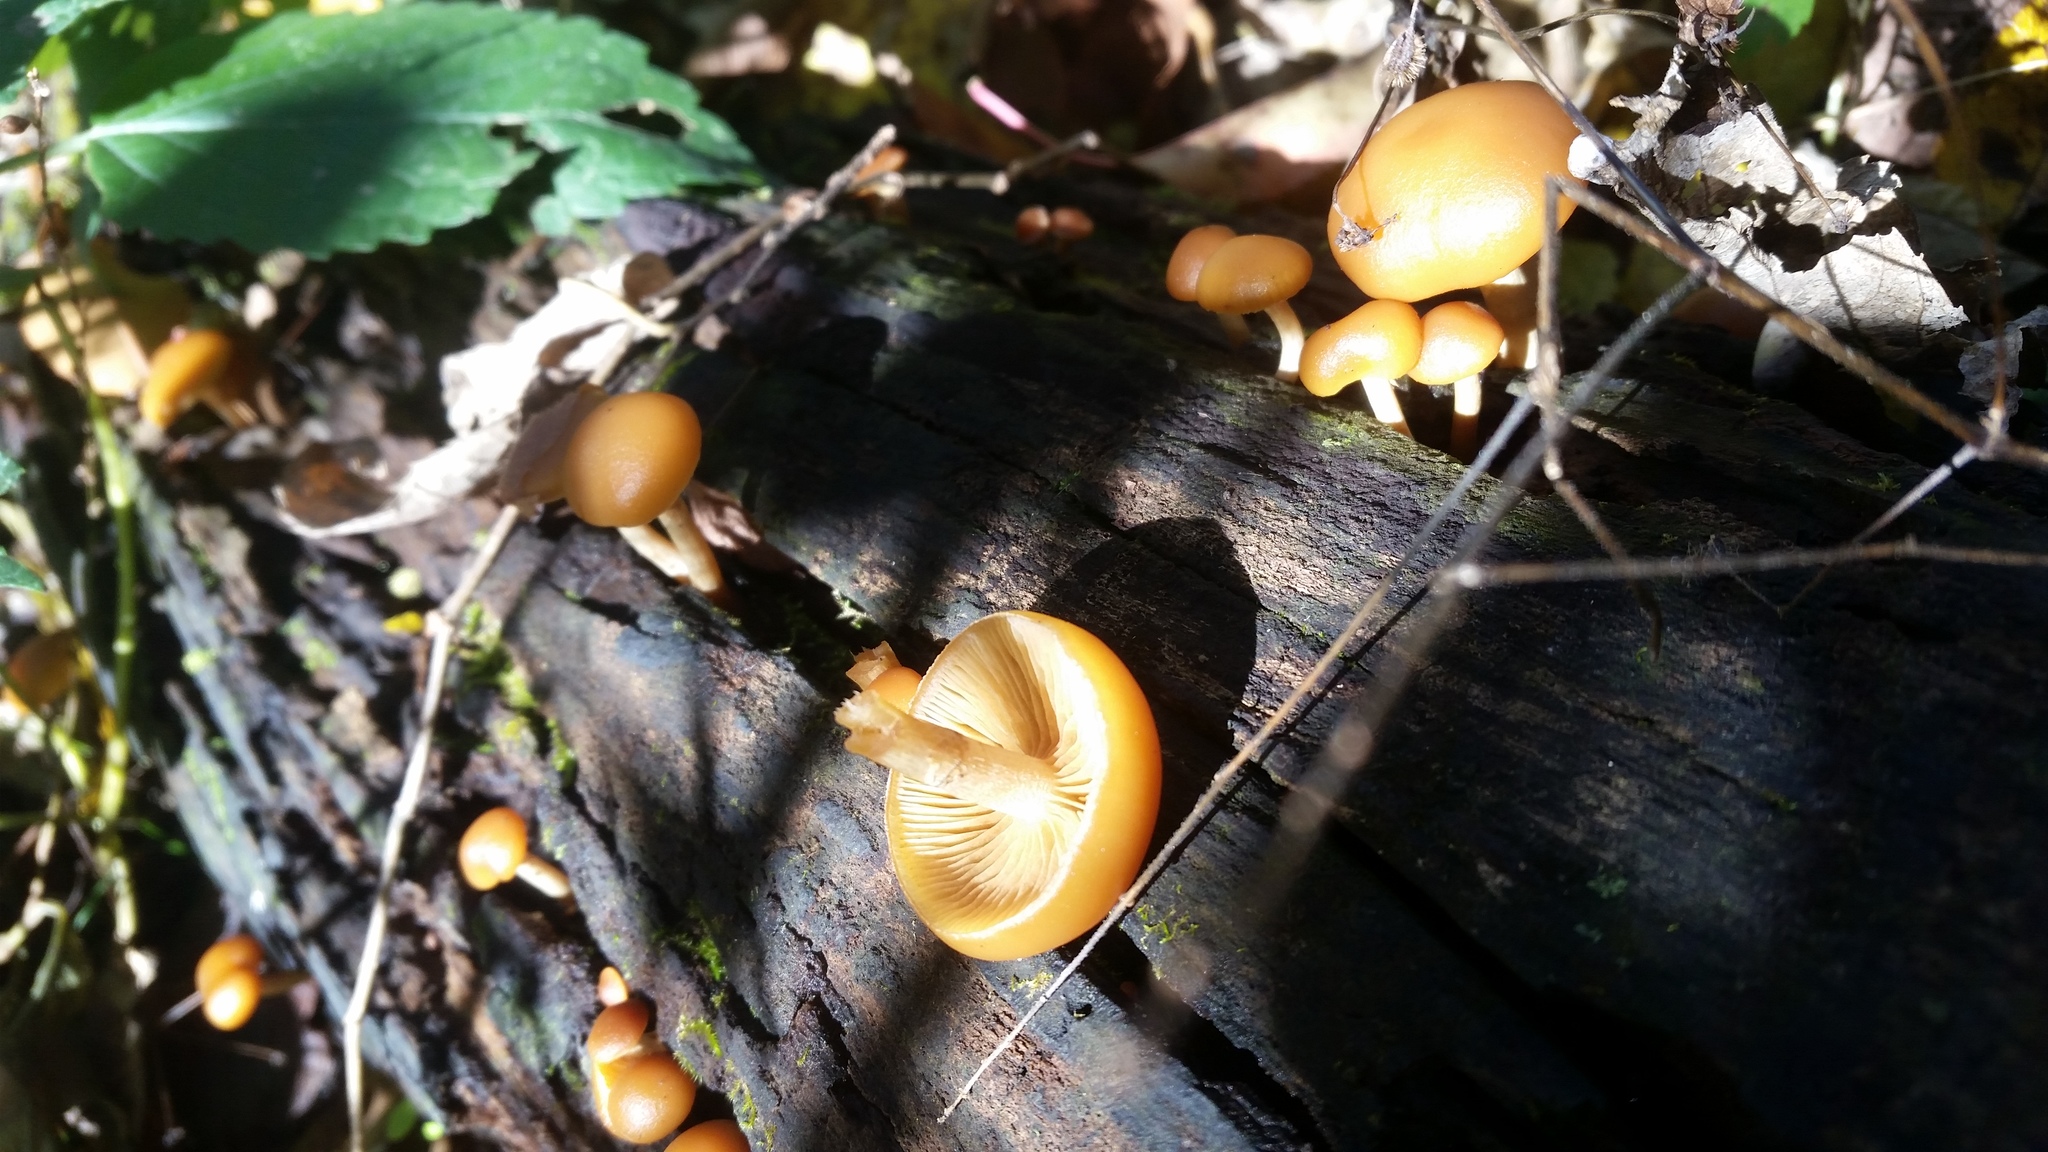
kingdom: Fungi
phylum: Basidiomycota
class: Agaricomycetes
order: Agaricales
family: Hymenogastraceae
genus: Galerina
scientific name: Galerina marginata
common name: Funeral bell
